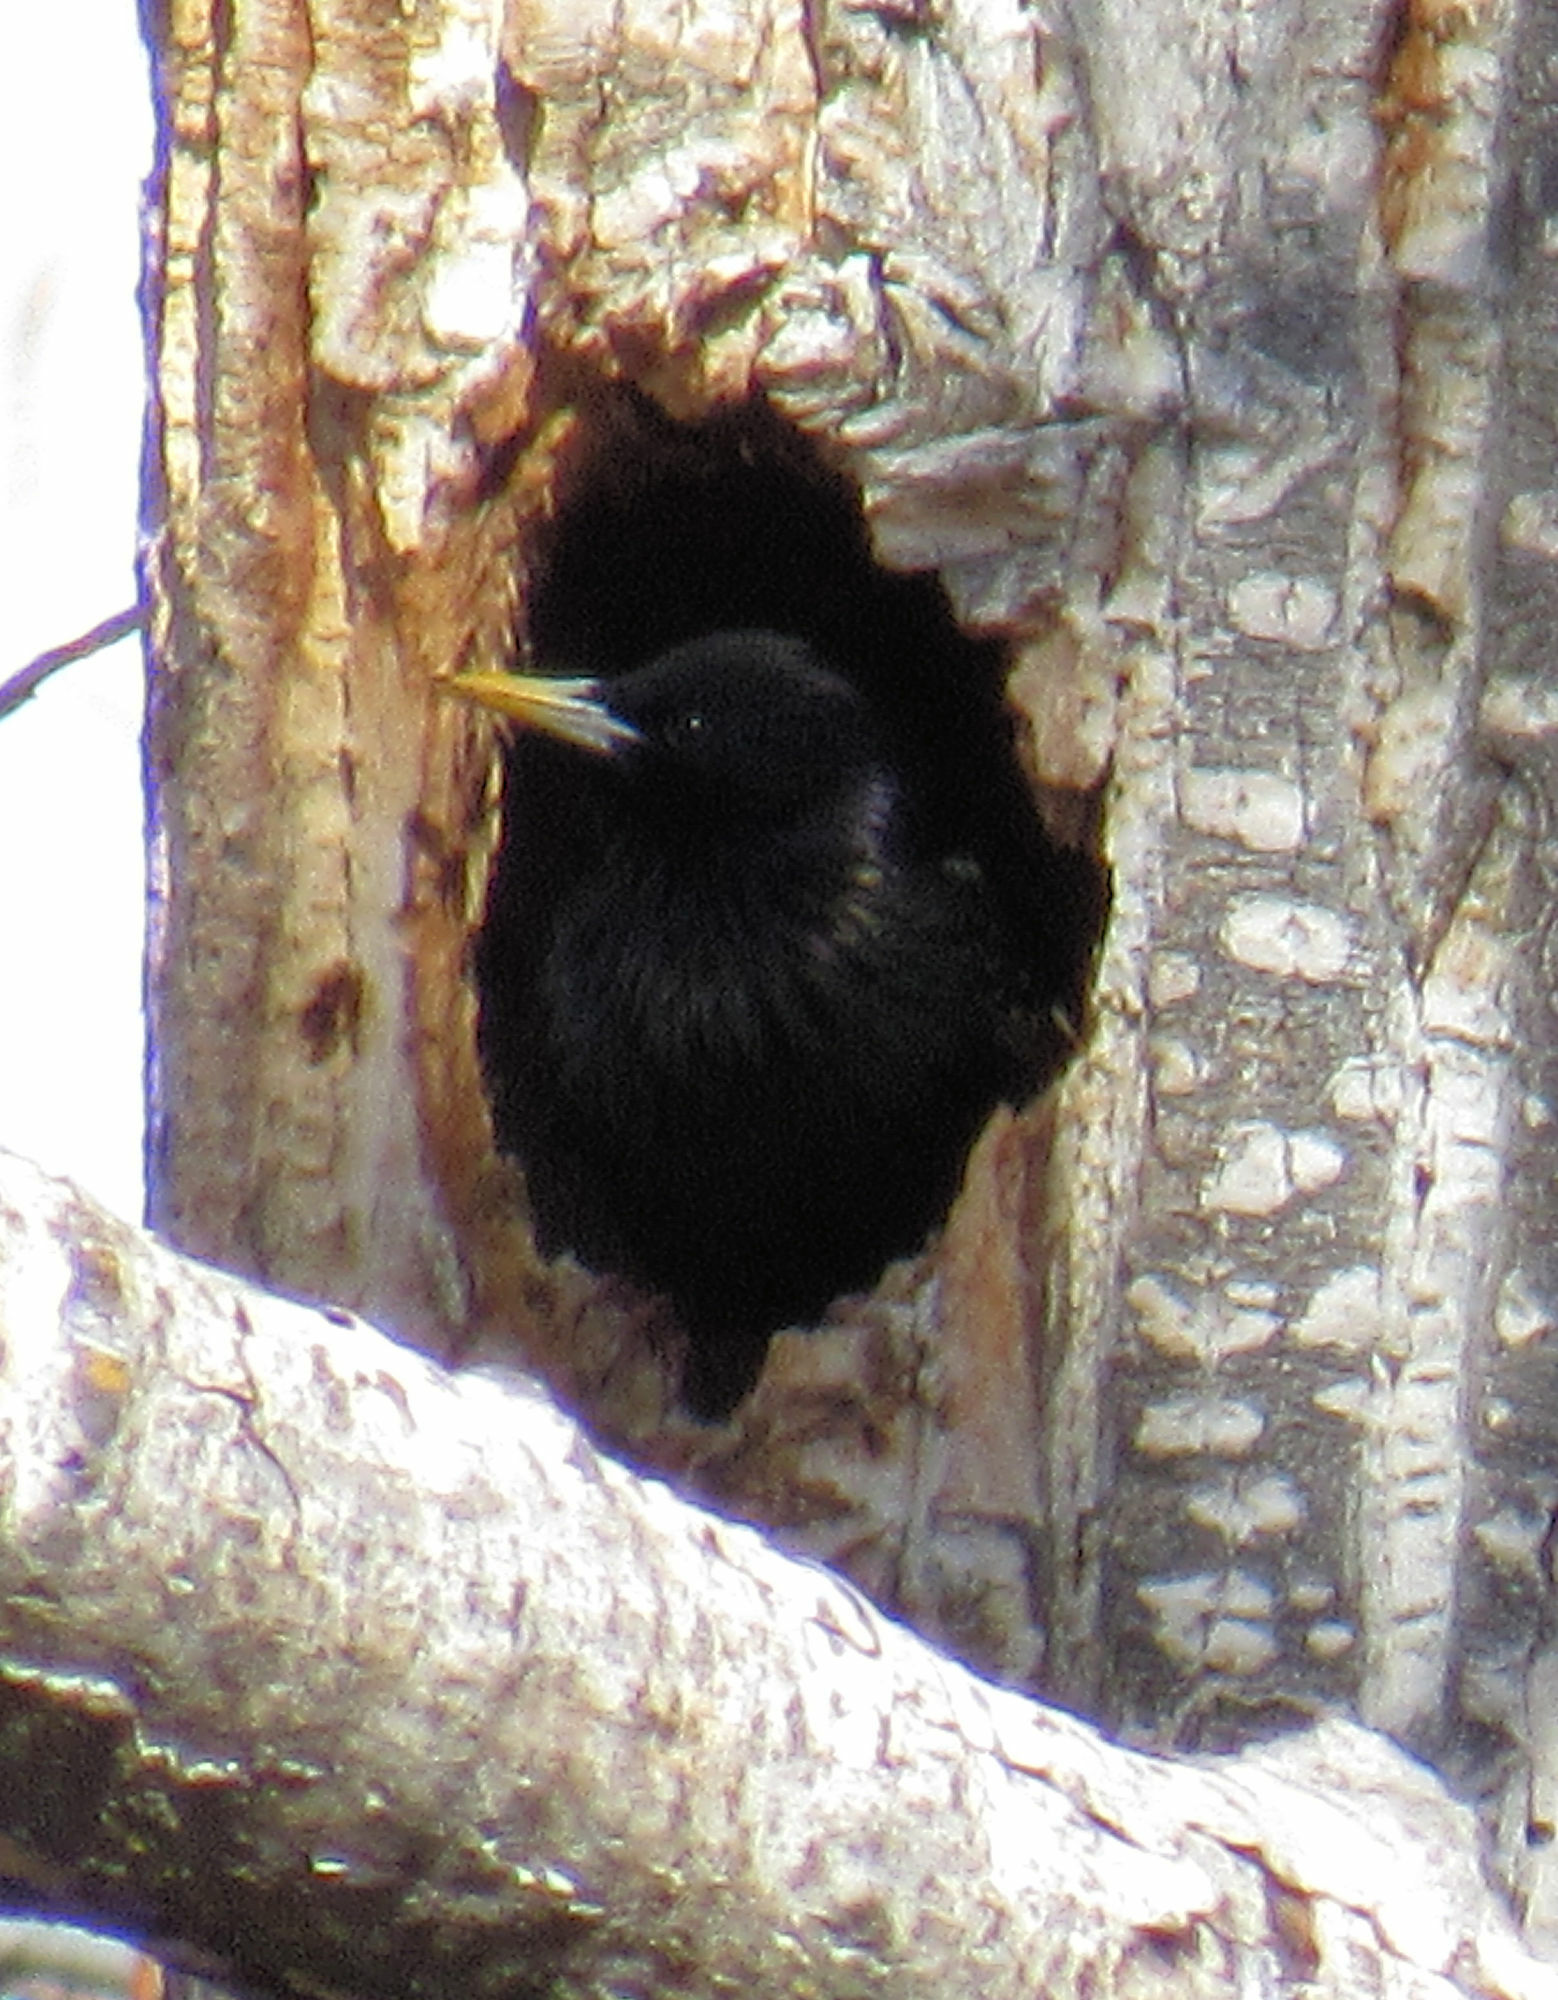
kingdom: Animalia
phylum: Chordata
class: Aves
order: Passeriformes
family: Sturnidae
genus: Sturnus
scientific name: Sturnus vulgaris
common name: Common starling
